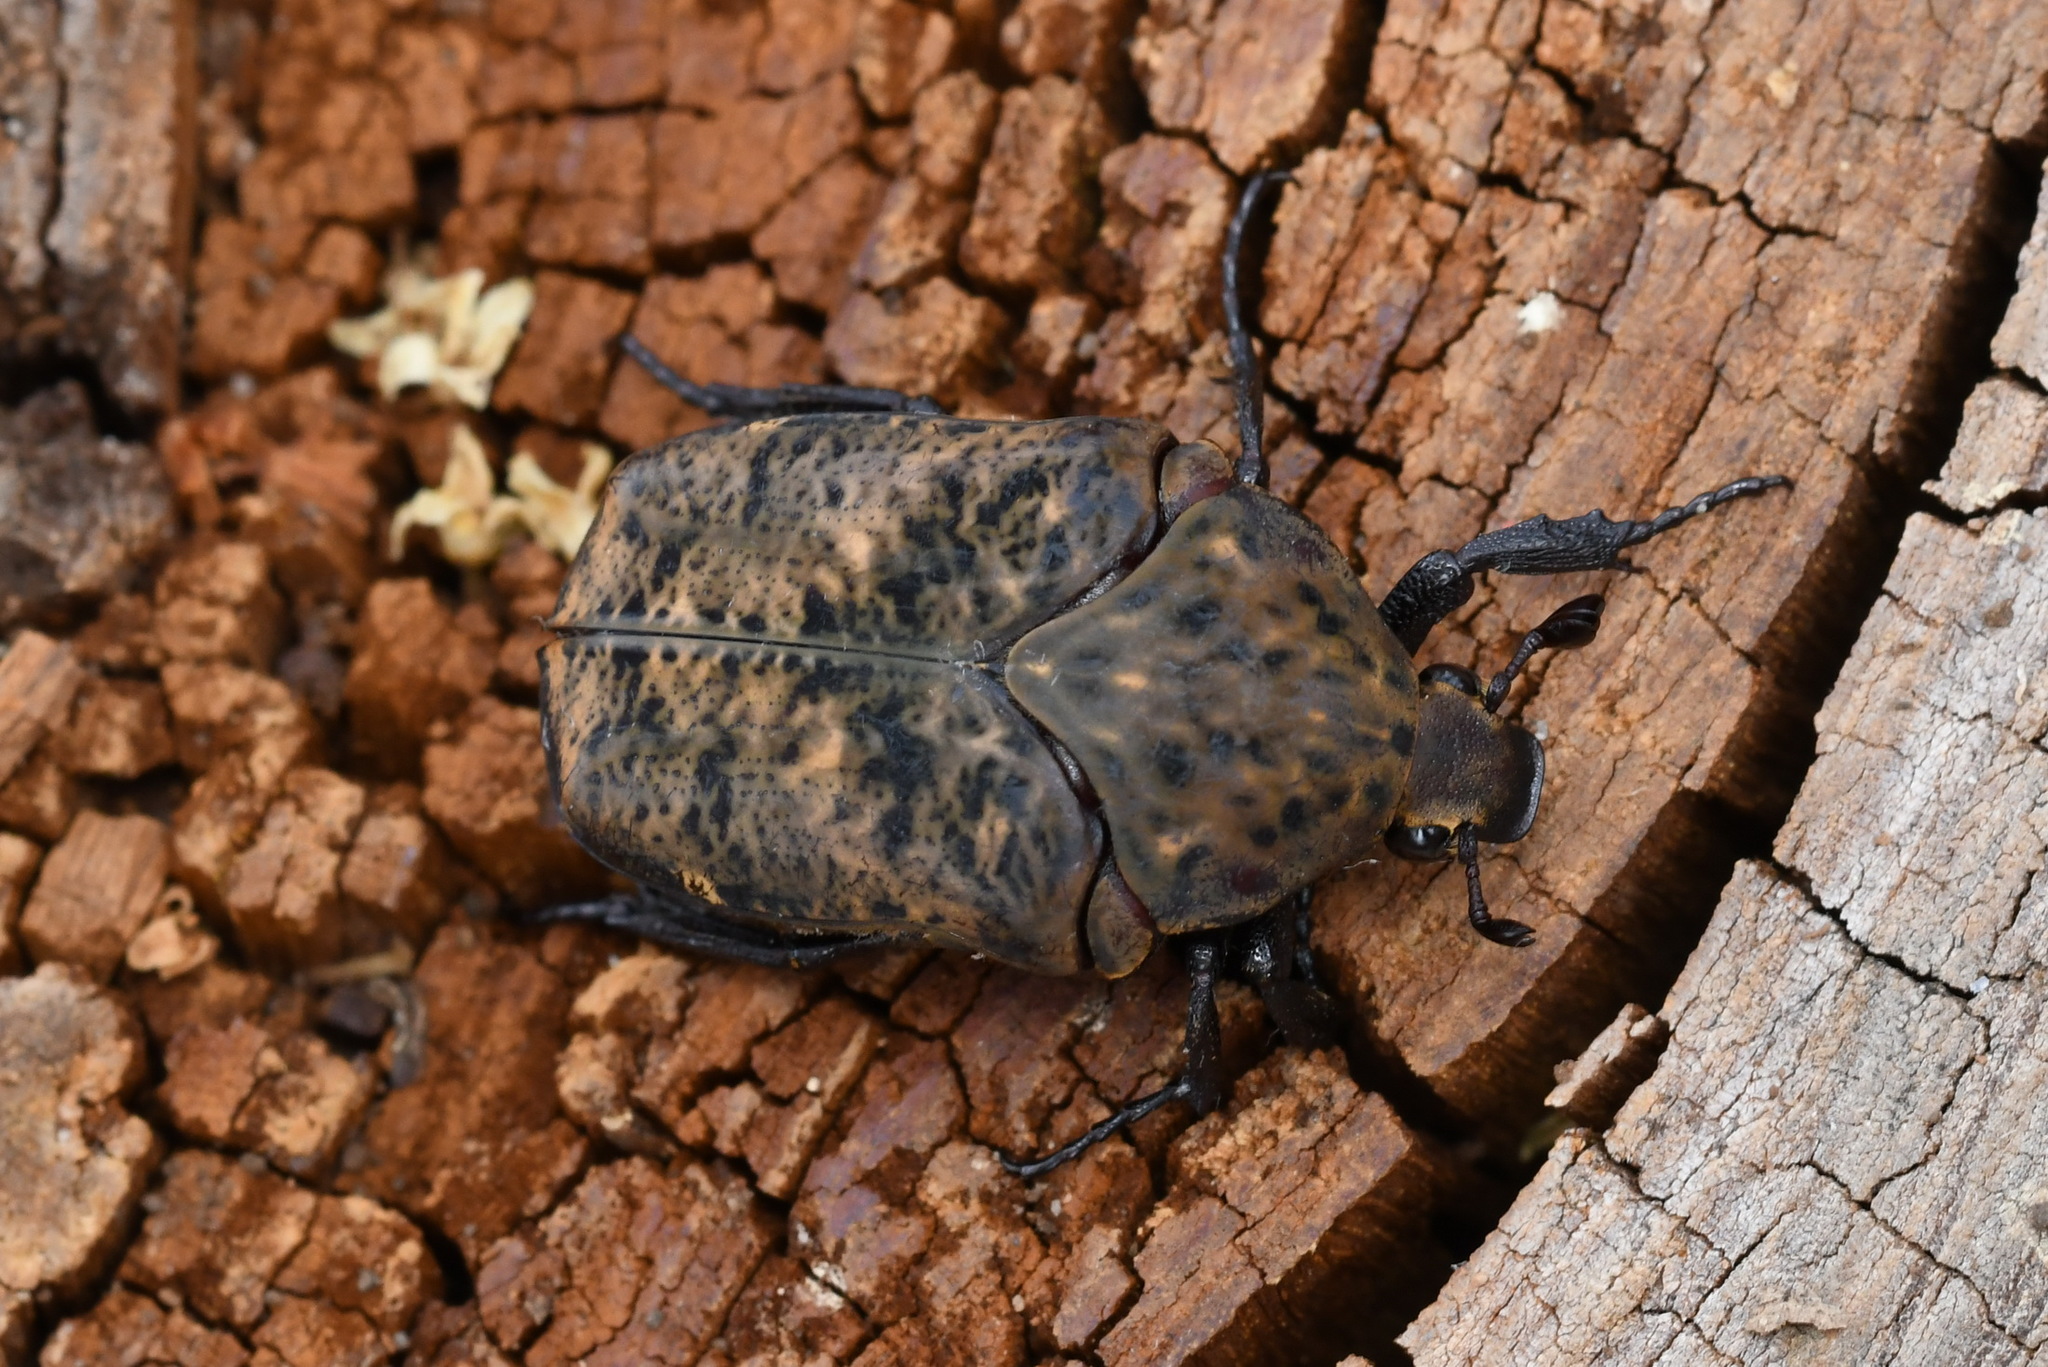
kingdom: Animalia
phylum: Arthropoda
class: Insecta
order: Coleoptera
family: Scarabaeidae
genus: Gymnetis
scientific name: Gymnetis hebraica
